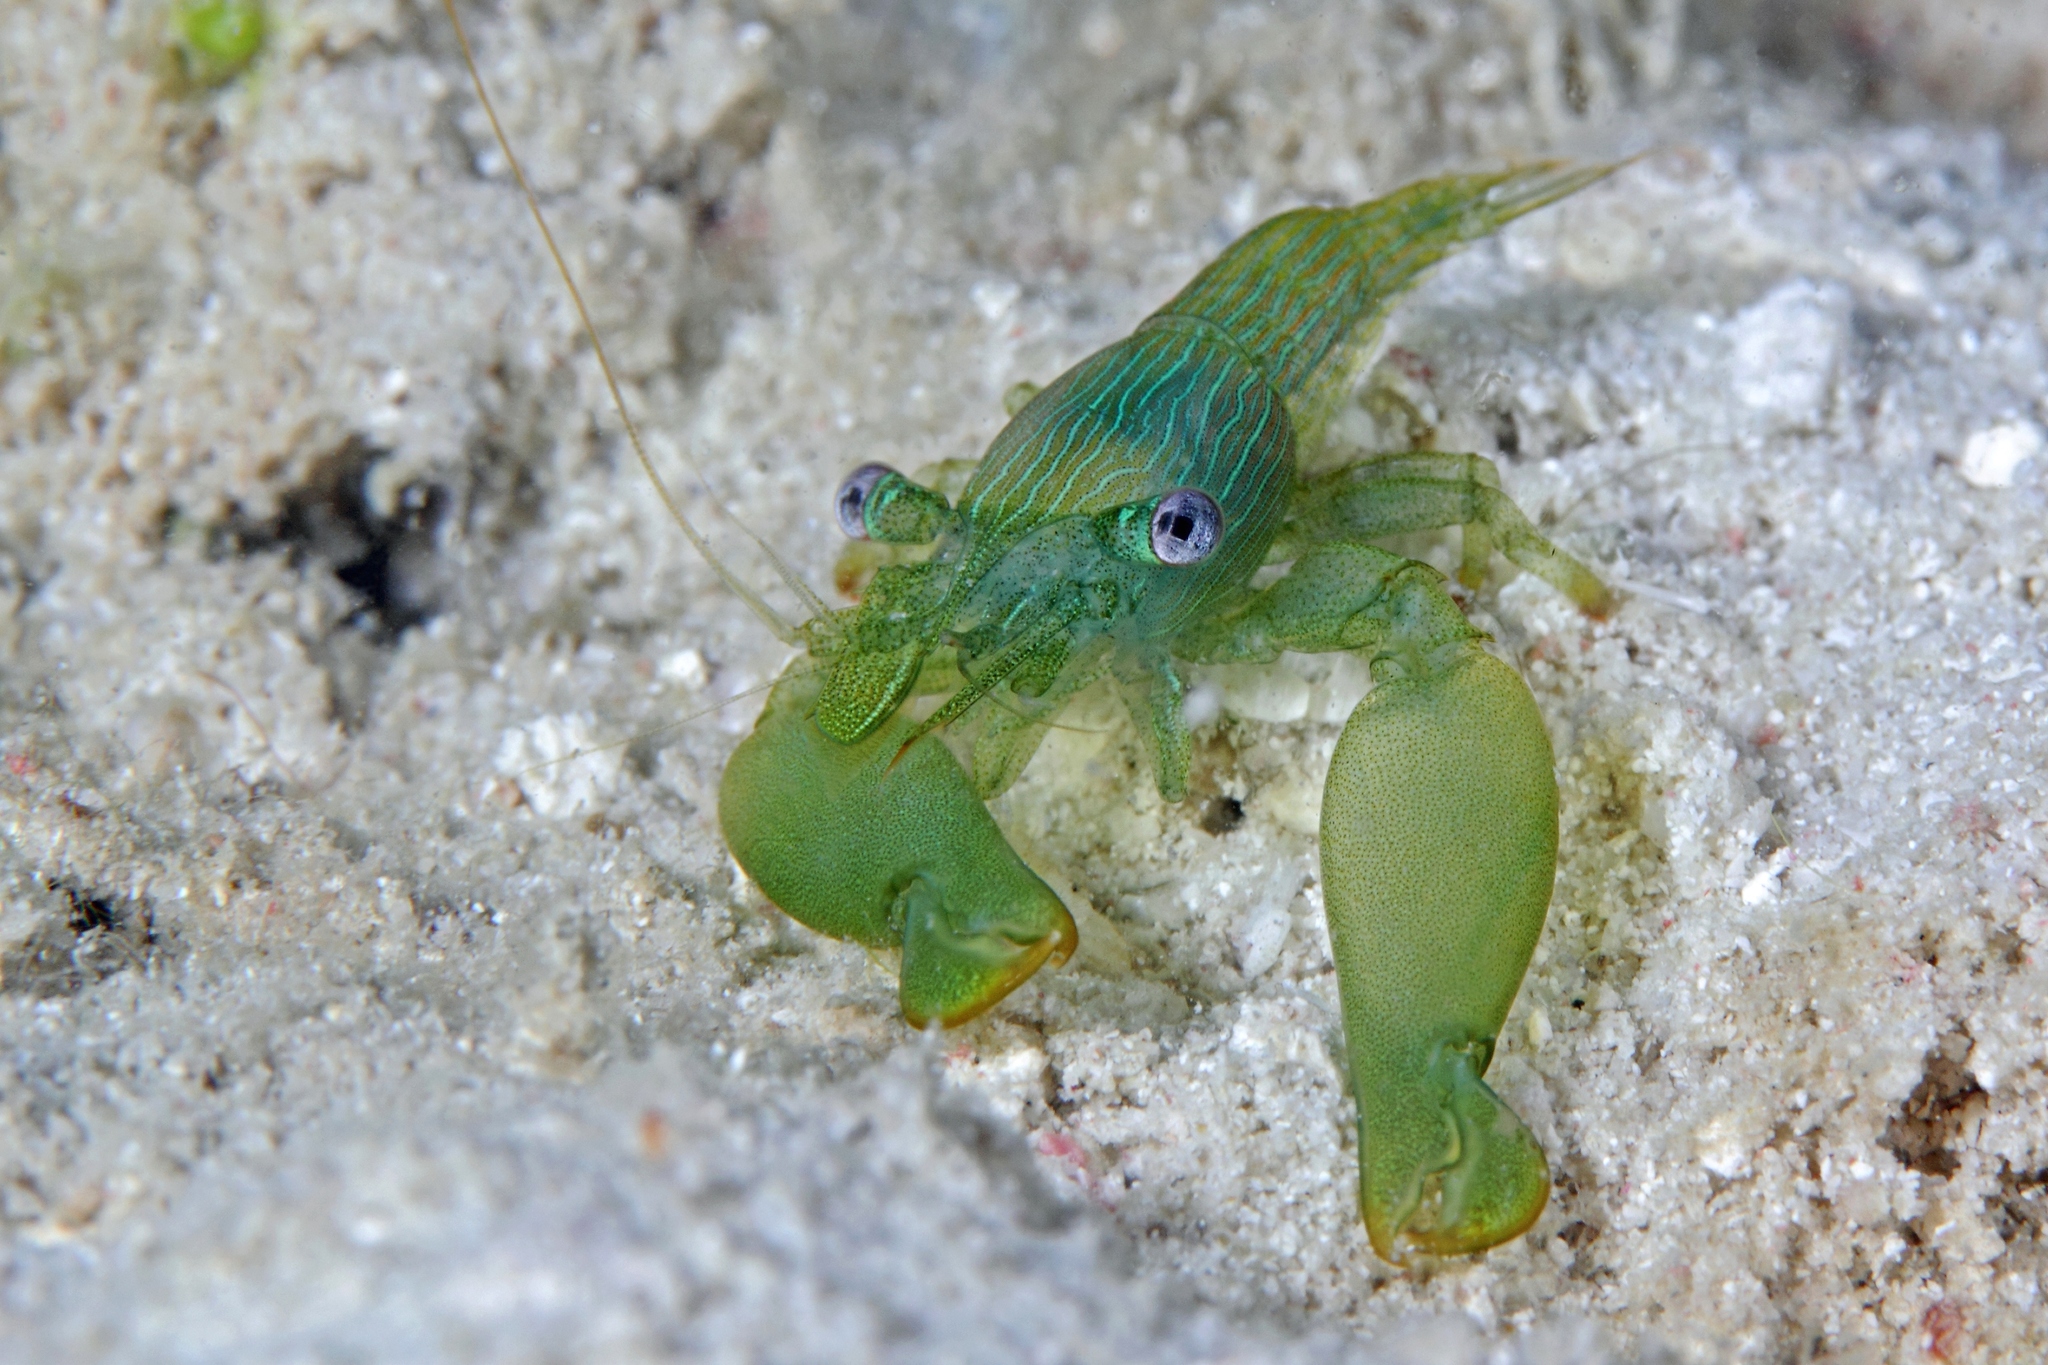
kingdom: Animalia
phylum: Arthropoda
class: Malacostraca
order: Decapoda
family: Palaemonidae
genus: Coralliocaris
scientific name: Coralliocaris graminea
